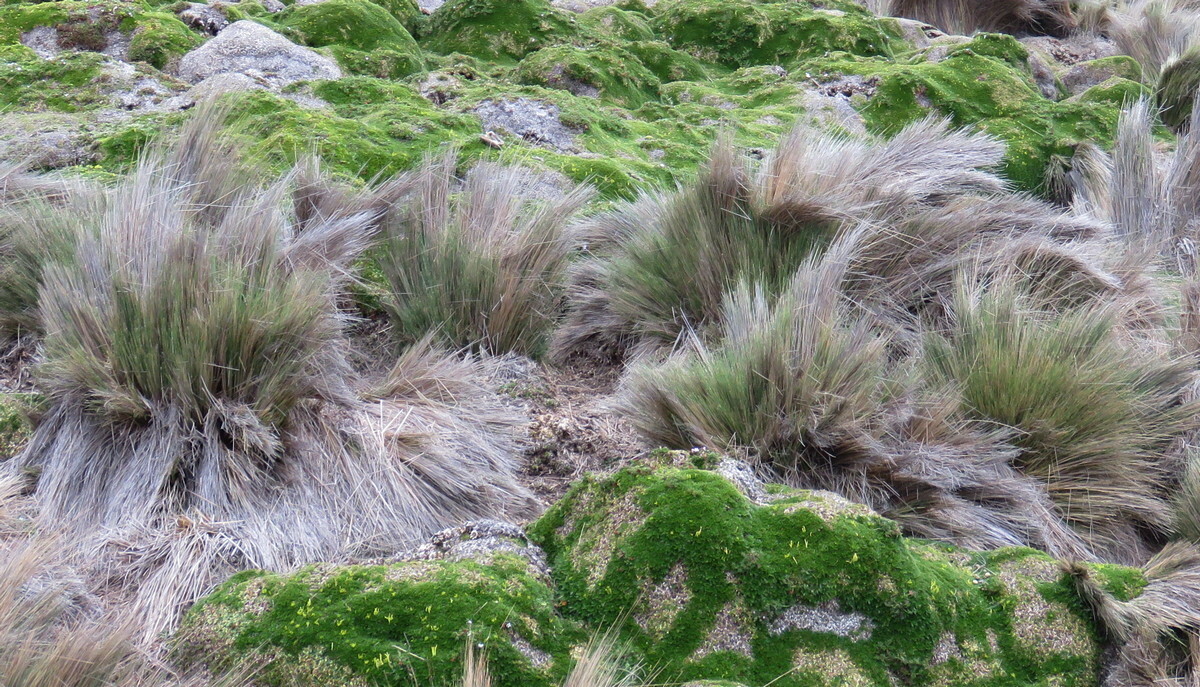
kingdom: Plantae
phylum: Tracheophyta
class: Liliopsida
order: Poales
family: Poaceae
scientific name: Poaceae
